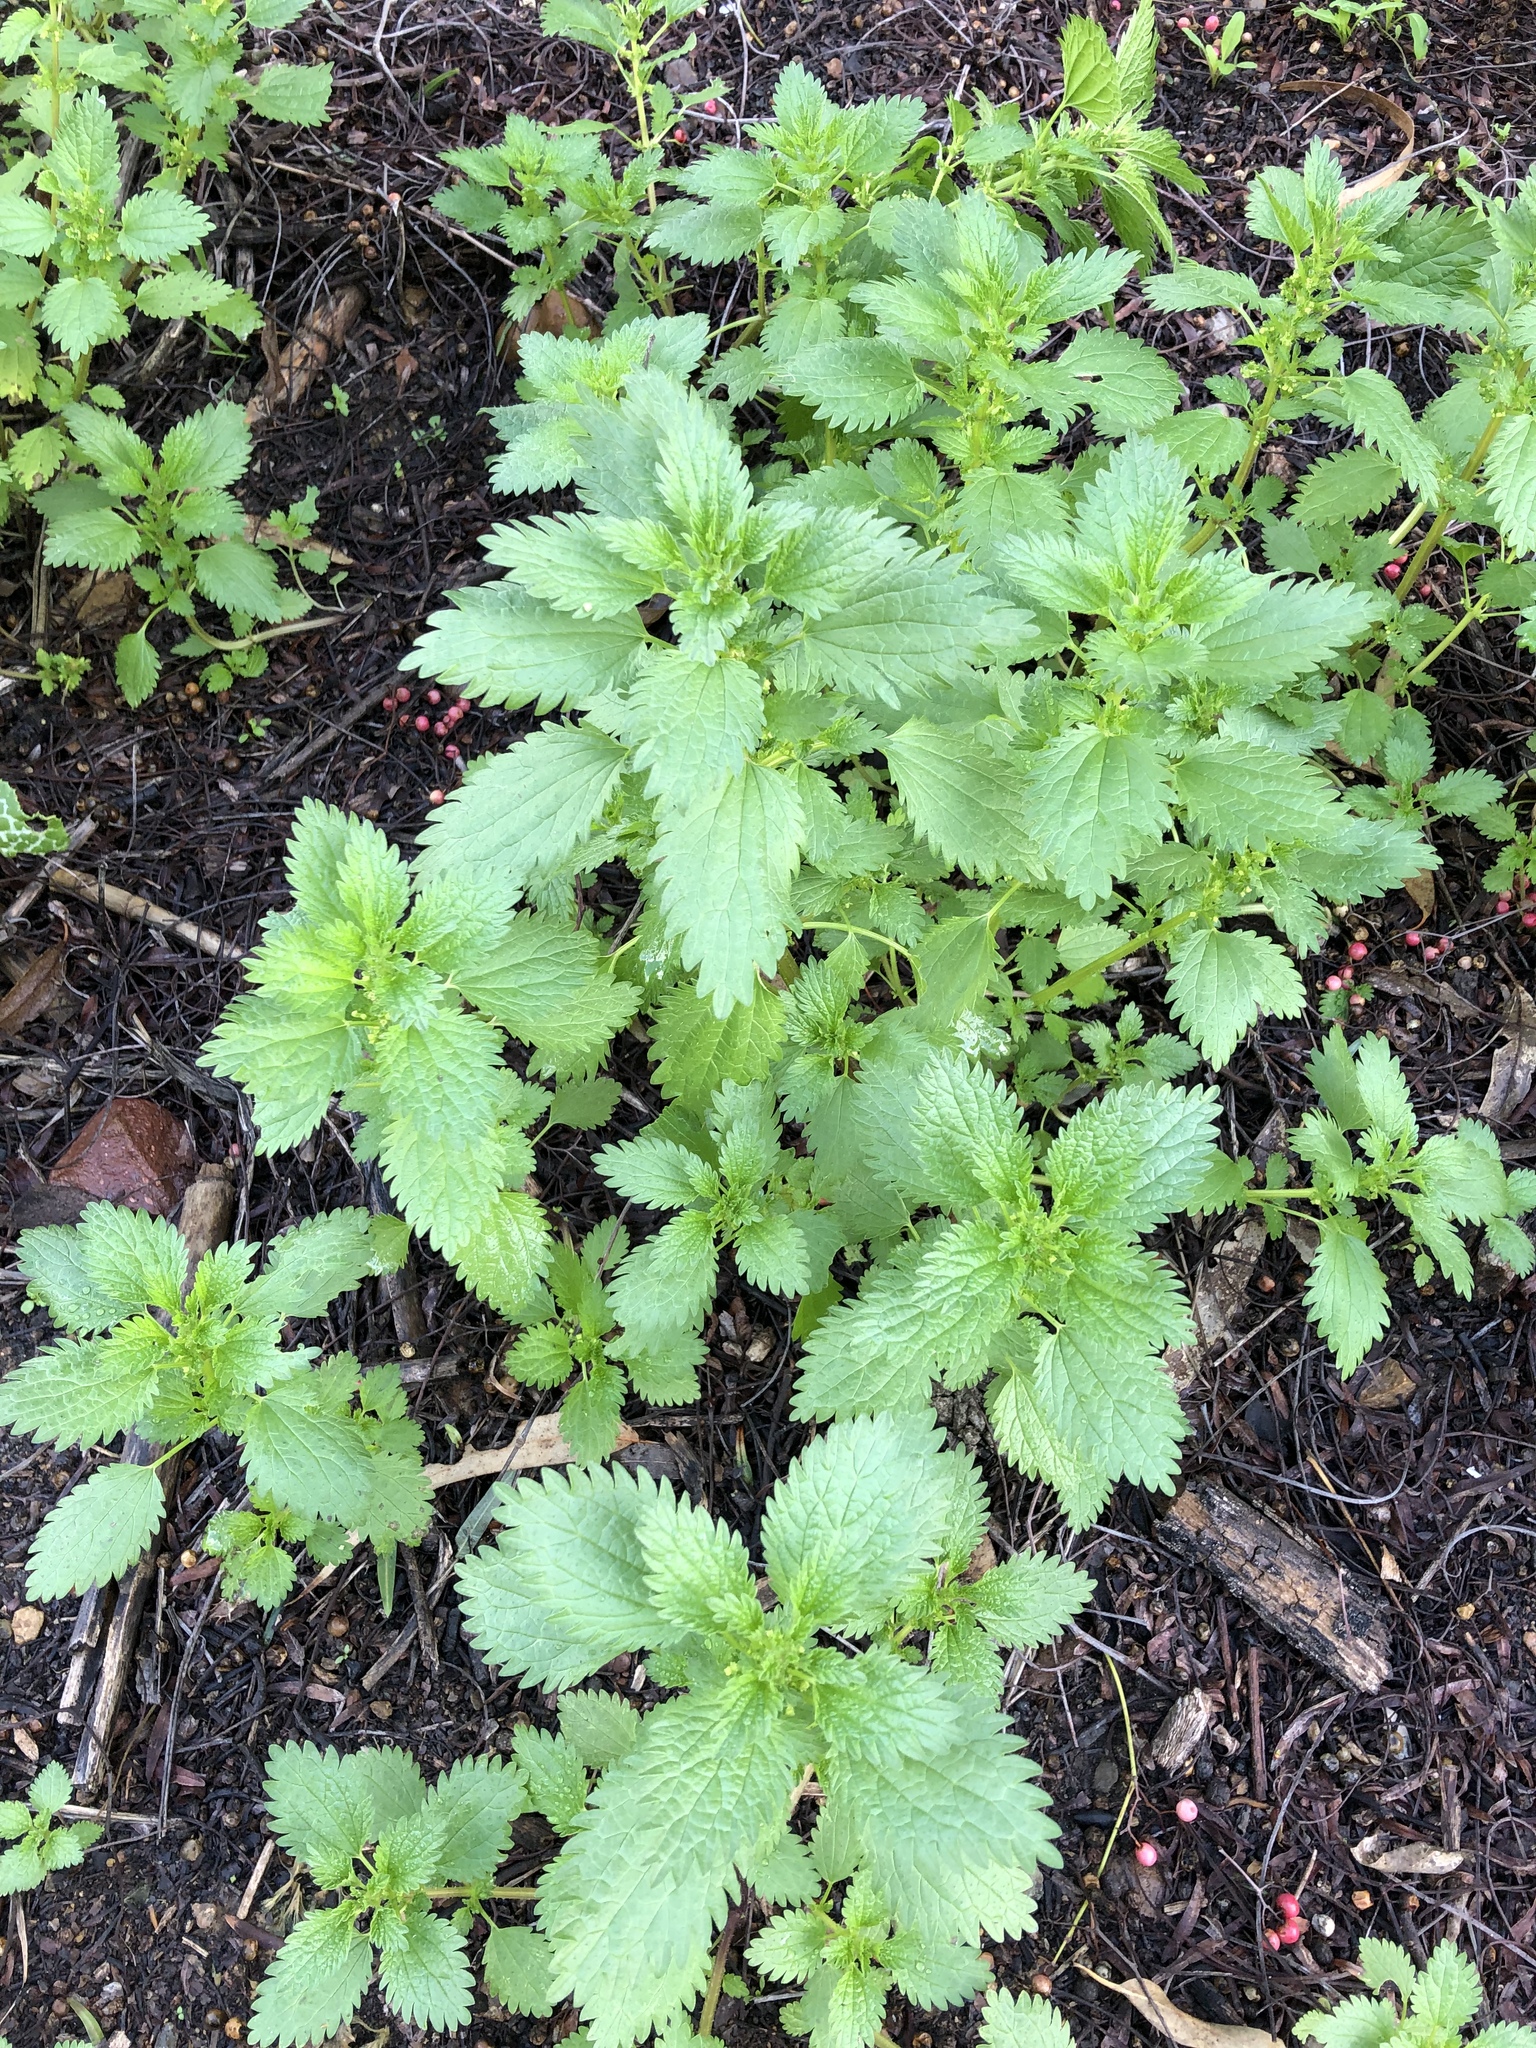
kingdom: Plantae
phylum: Tracheophyta
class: Magnoliopsida
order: Rosales
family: Urticaceae
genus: Urtica
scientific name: Urtica urens
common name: Dwarf nettle
